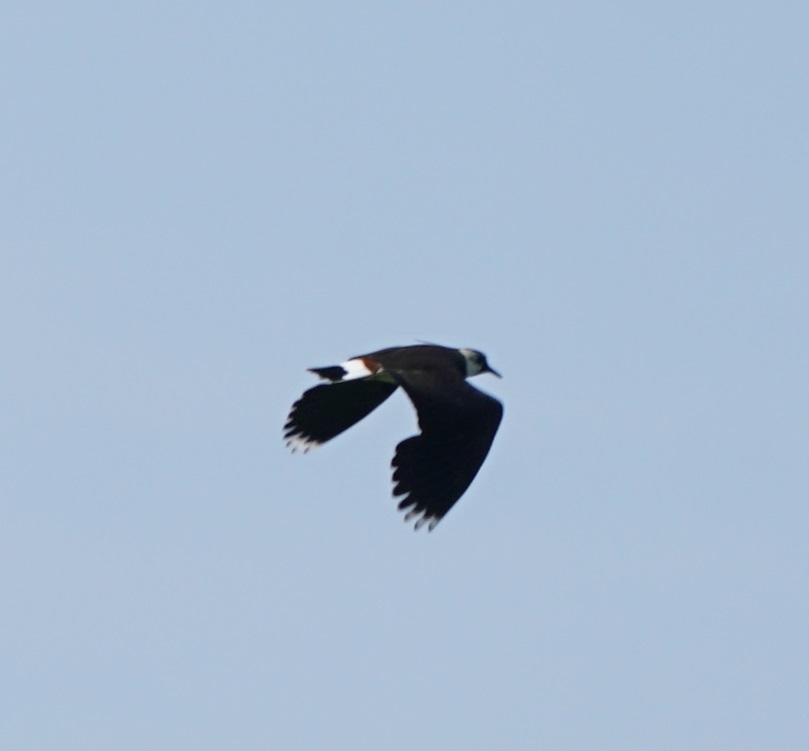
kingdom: Animalia
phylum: Chordata
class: Aves
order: Charadriiformes
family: Charadriidae
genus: Vanellus
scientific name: Vanellus vanellus
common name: Northern lapwing
